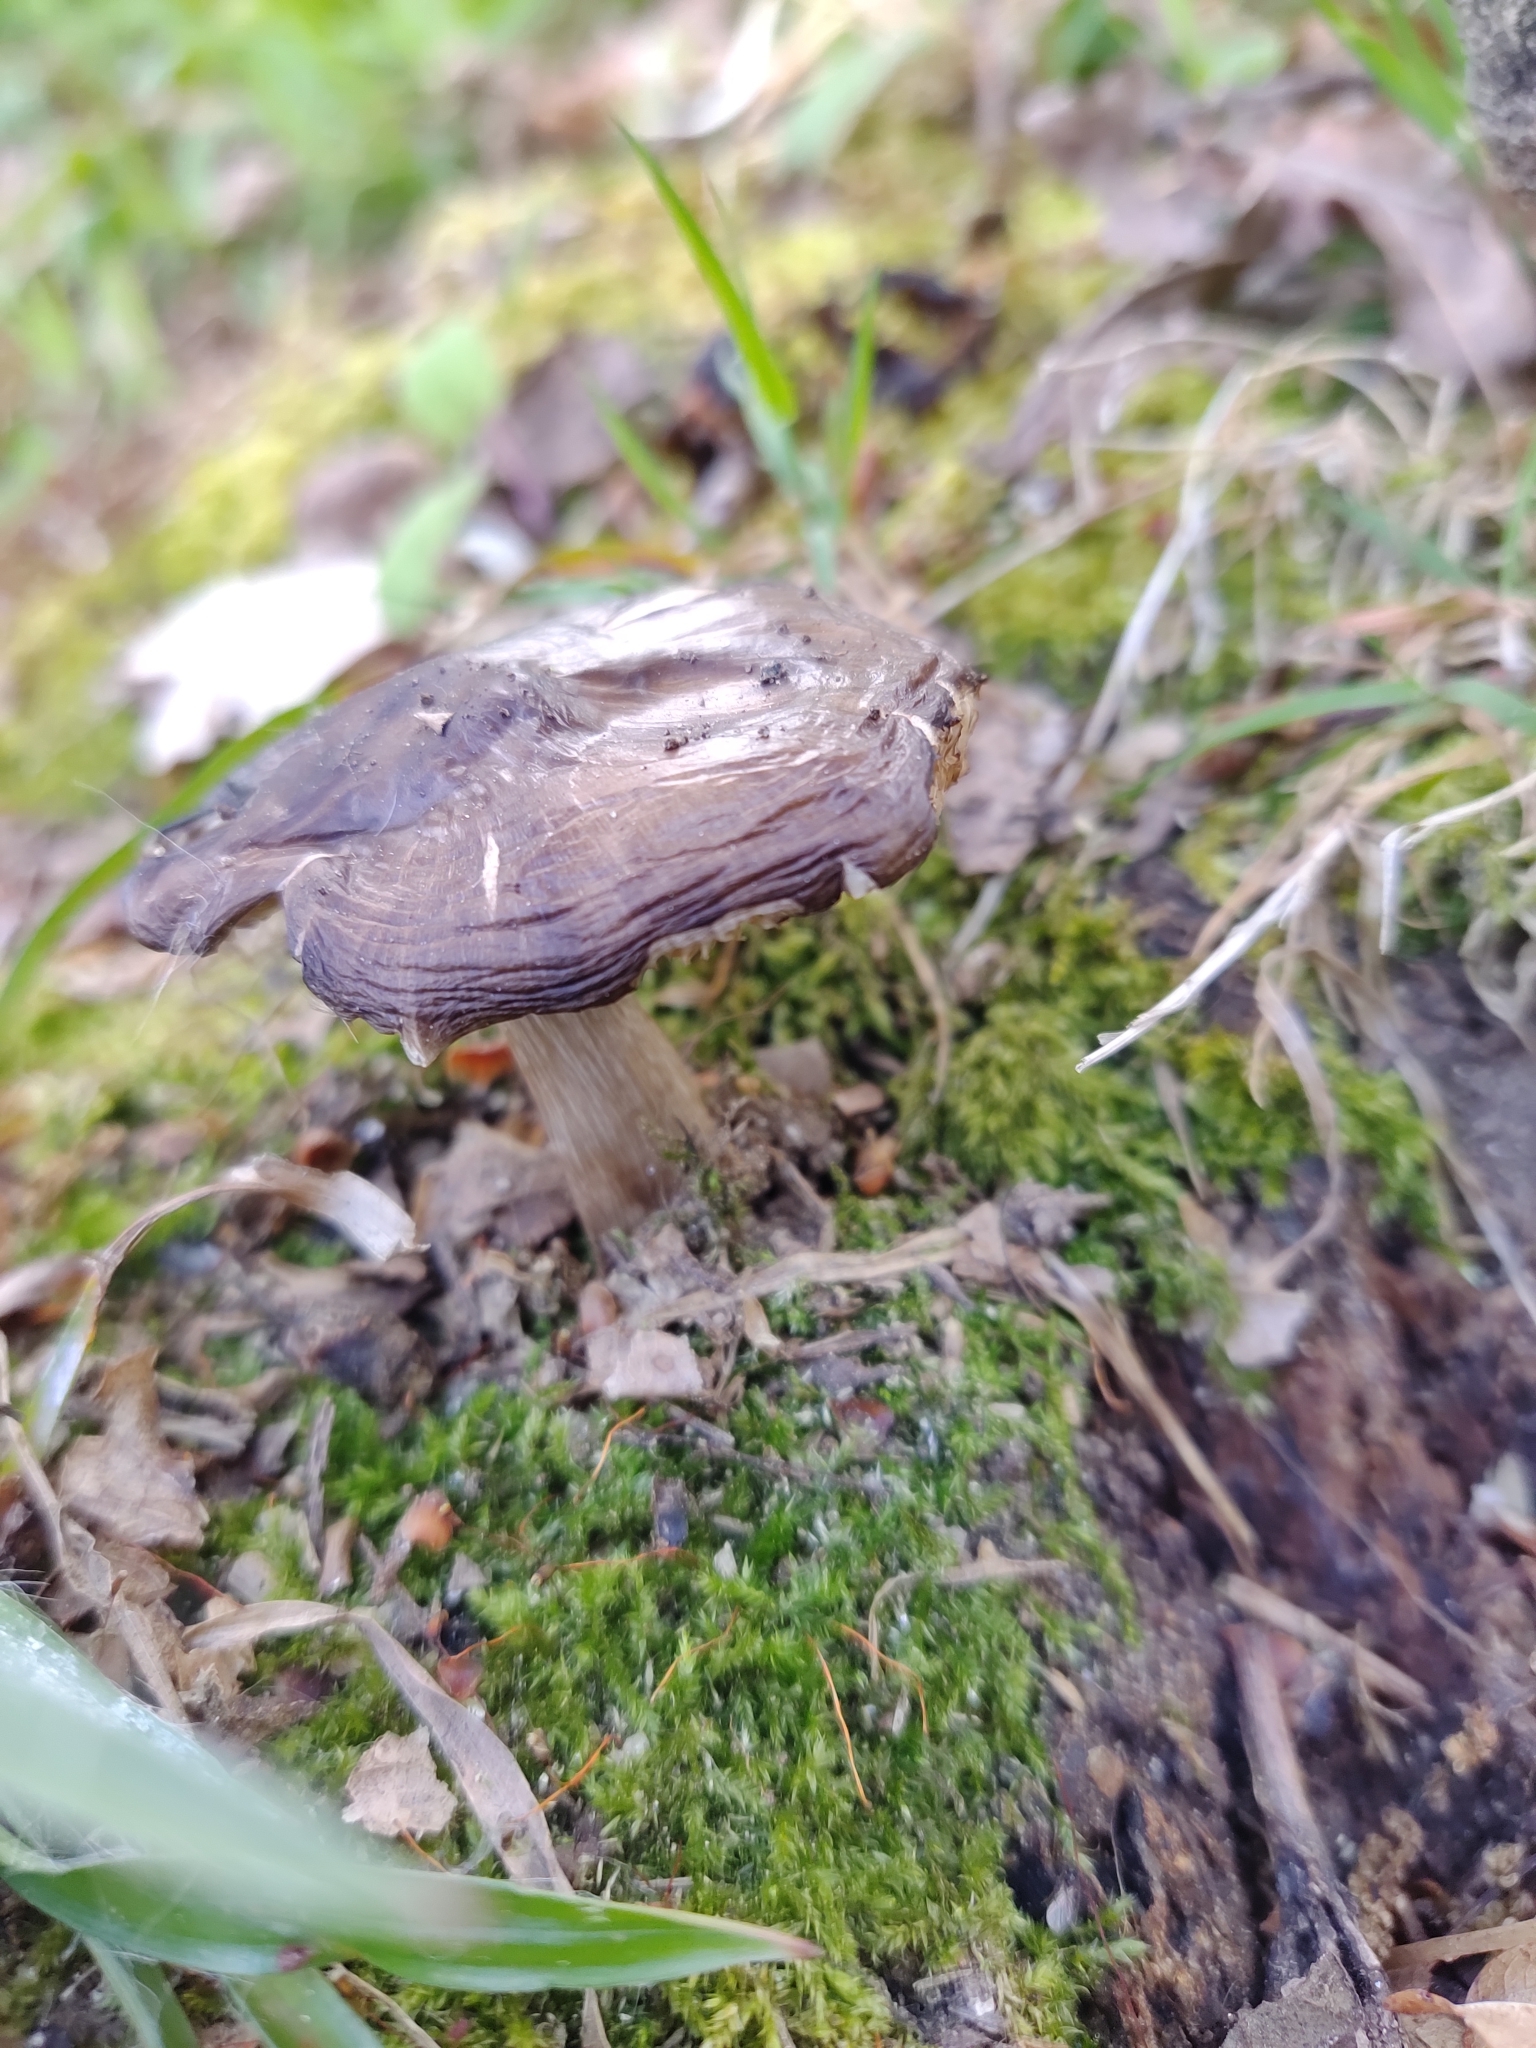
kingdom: Fungi
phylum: Basidiomycota
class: Agaricomycetes
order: Agaricales
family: Pluteaceae
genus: Pluteus
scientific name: Pluteus cervinus
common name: Deer shield
